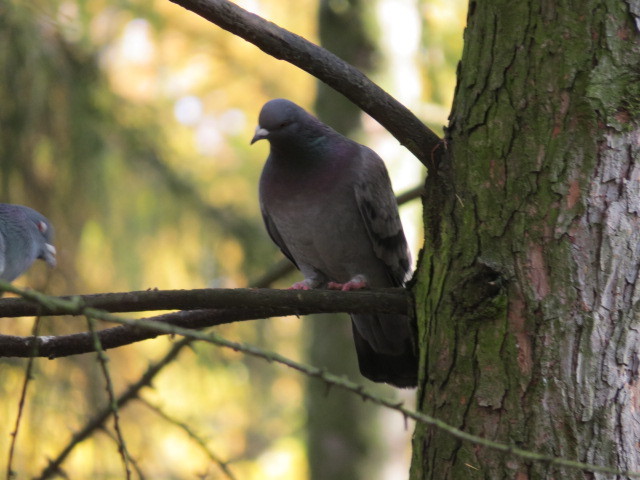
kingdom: Animalia
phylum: Chordata
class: Aves
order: Columbiformes
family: Columbidae
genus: Columba
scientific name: Columba livia
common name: Rock pigeon
